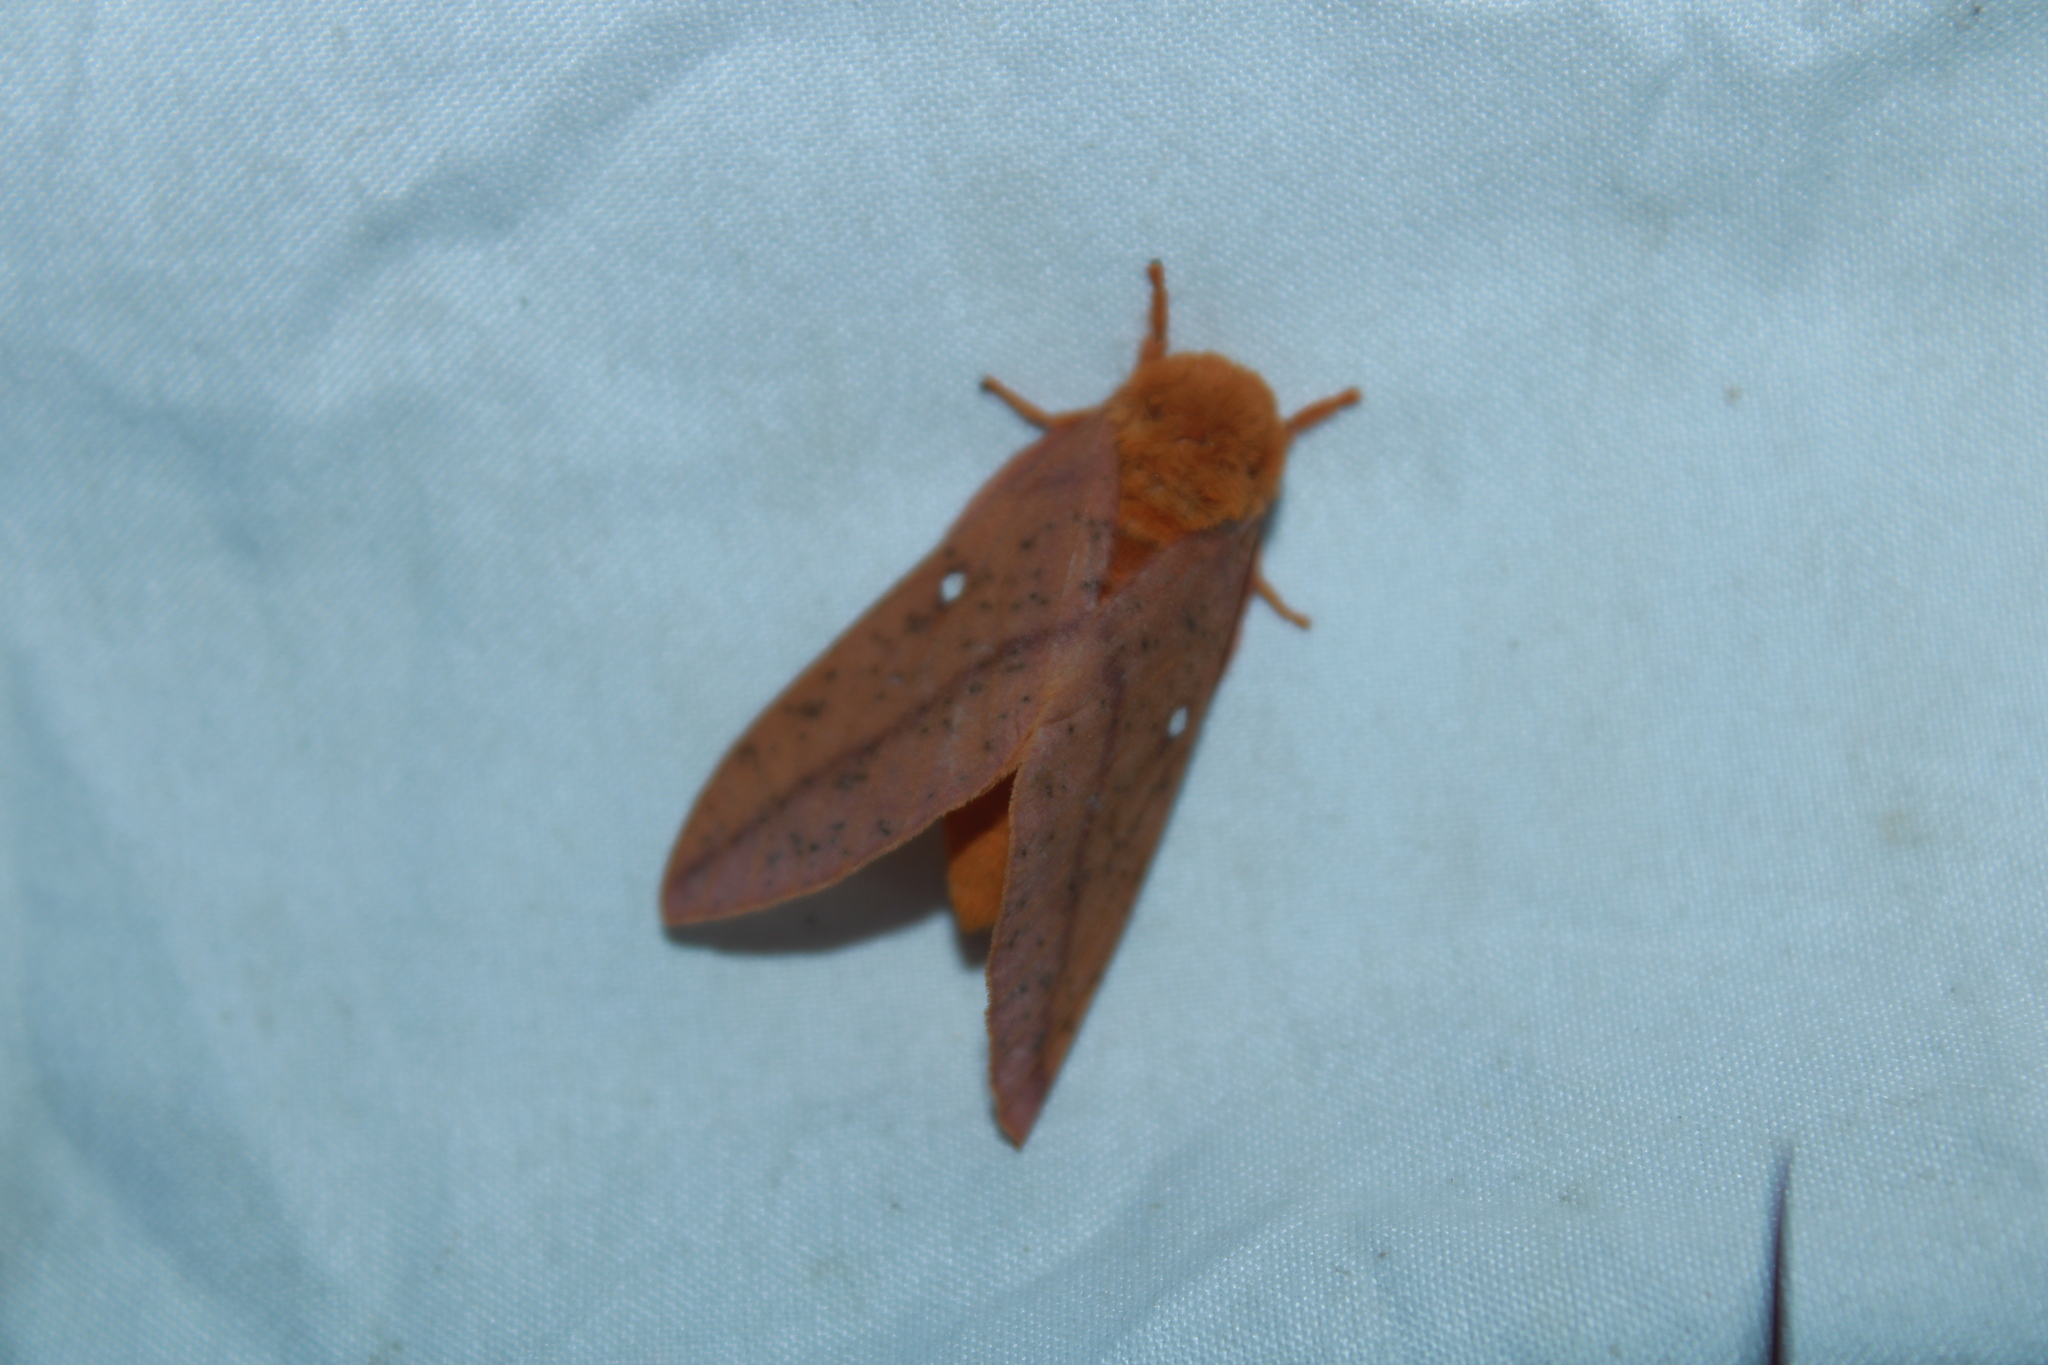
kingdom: Animalia
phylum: Arthropoda
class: Insecta
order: Lepidoptera
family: Saturniidae
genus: Anisota
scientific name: Anisota senatoria
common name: Orange-striped oakworm moth
